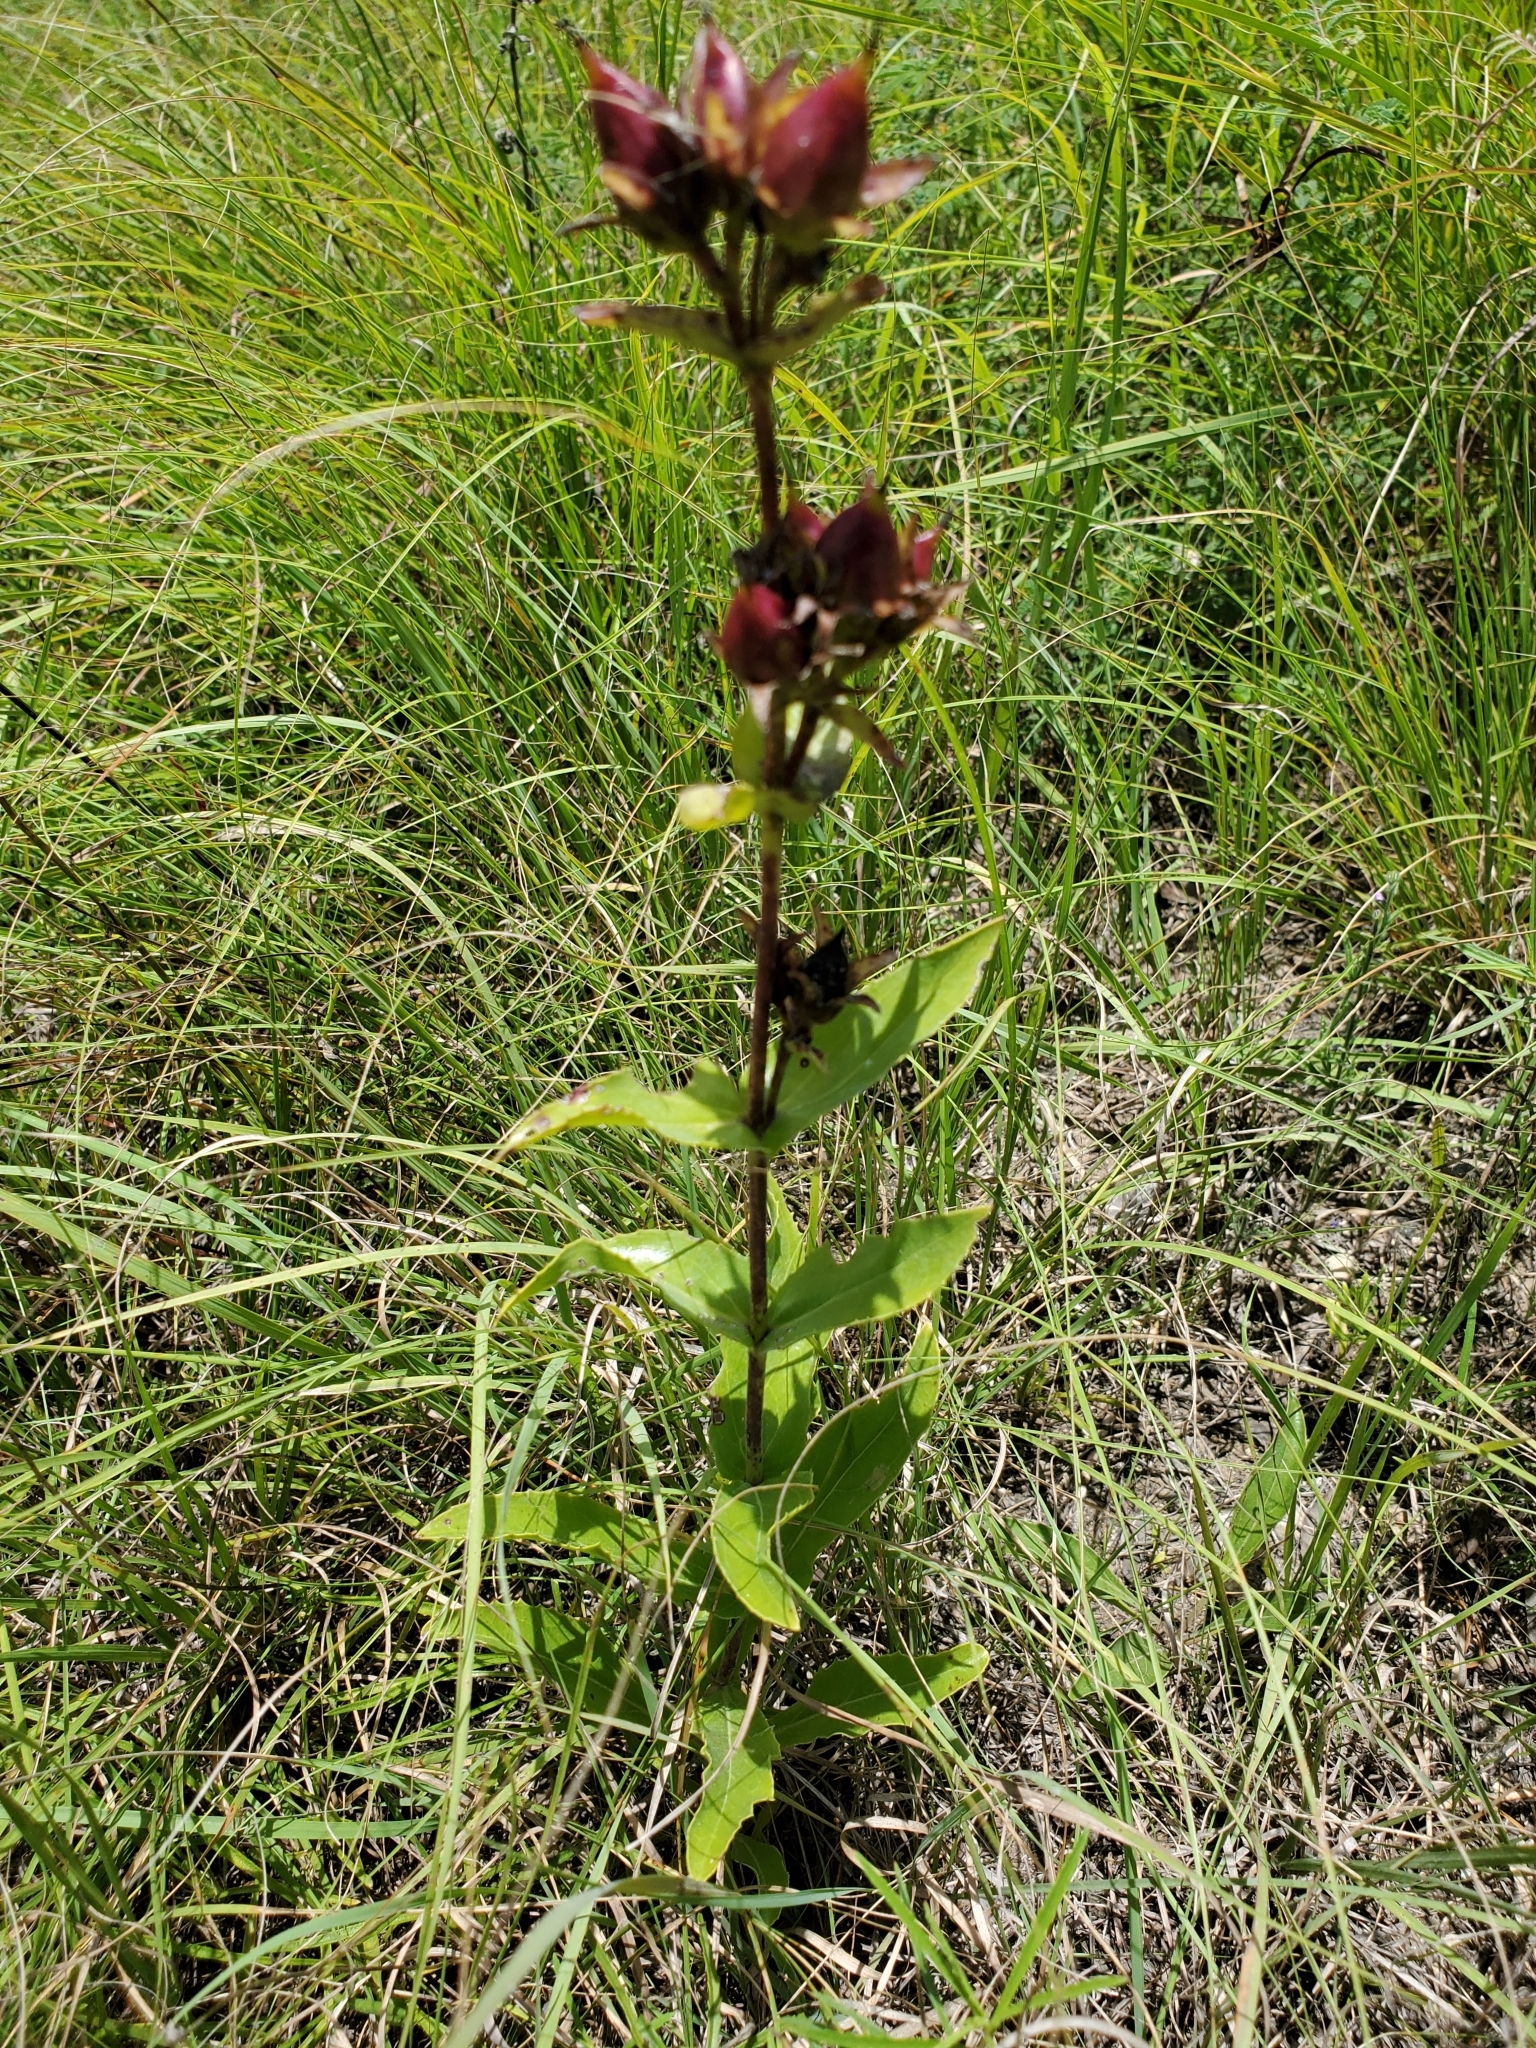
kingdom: Plantae
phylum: Tracheophyta
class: Magnoliopsida
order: Lamiales
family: Plantaginaceae
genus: Penstemon
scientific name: Penstemon cobaea
